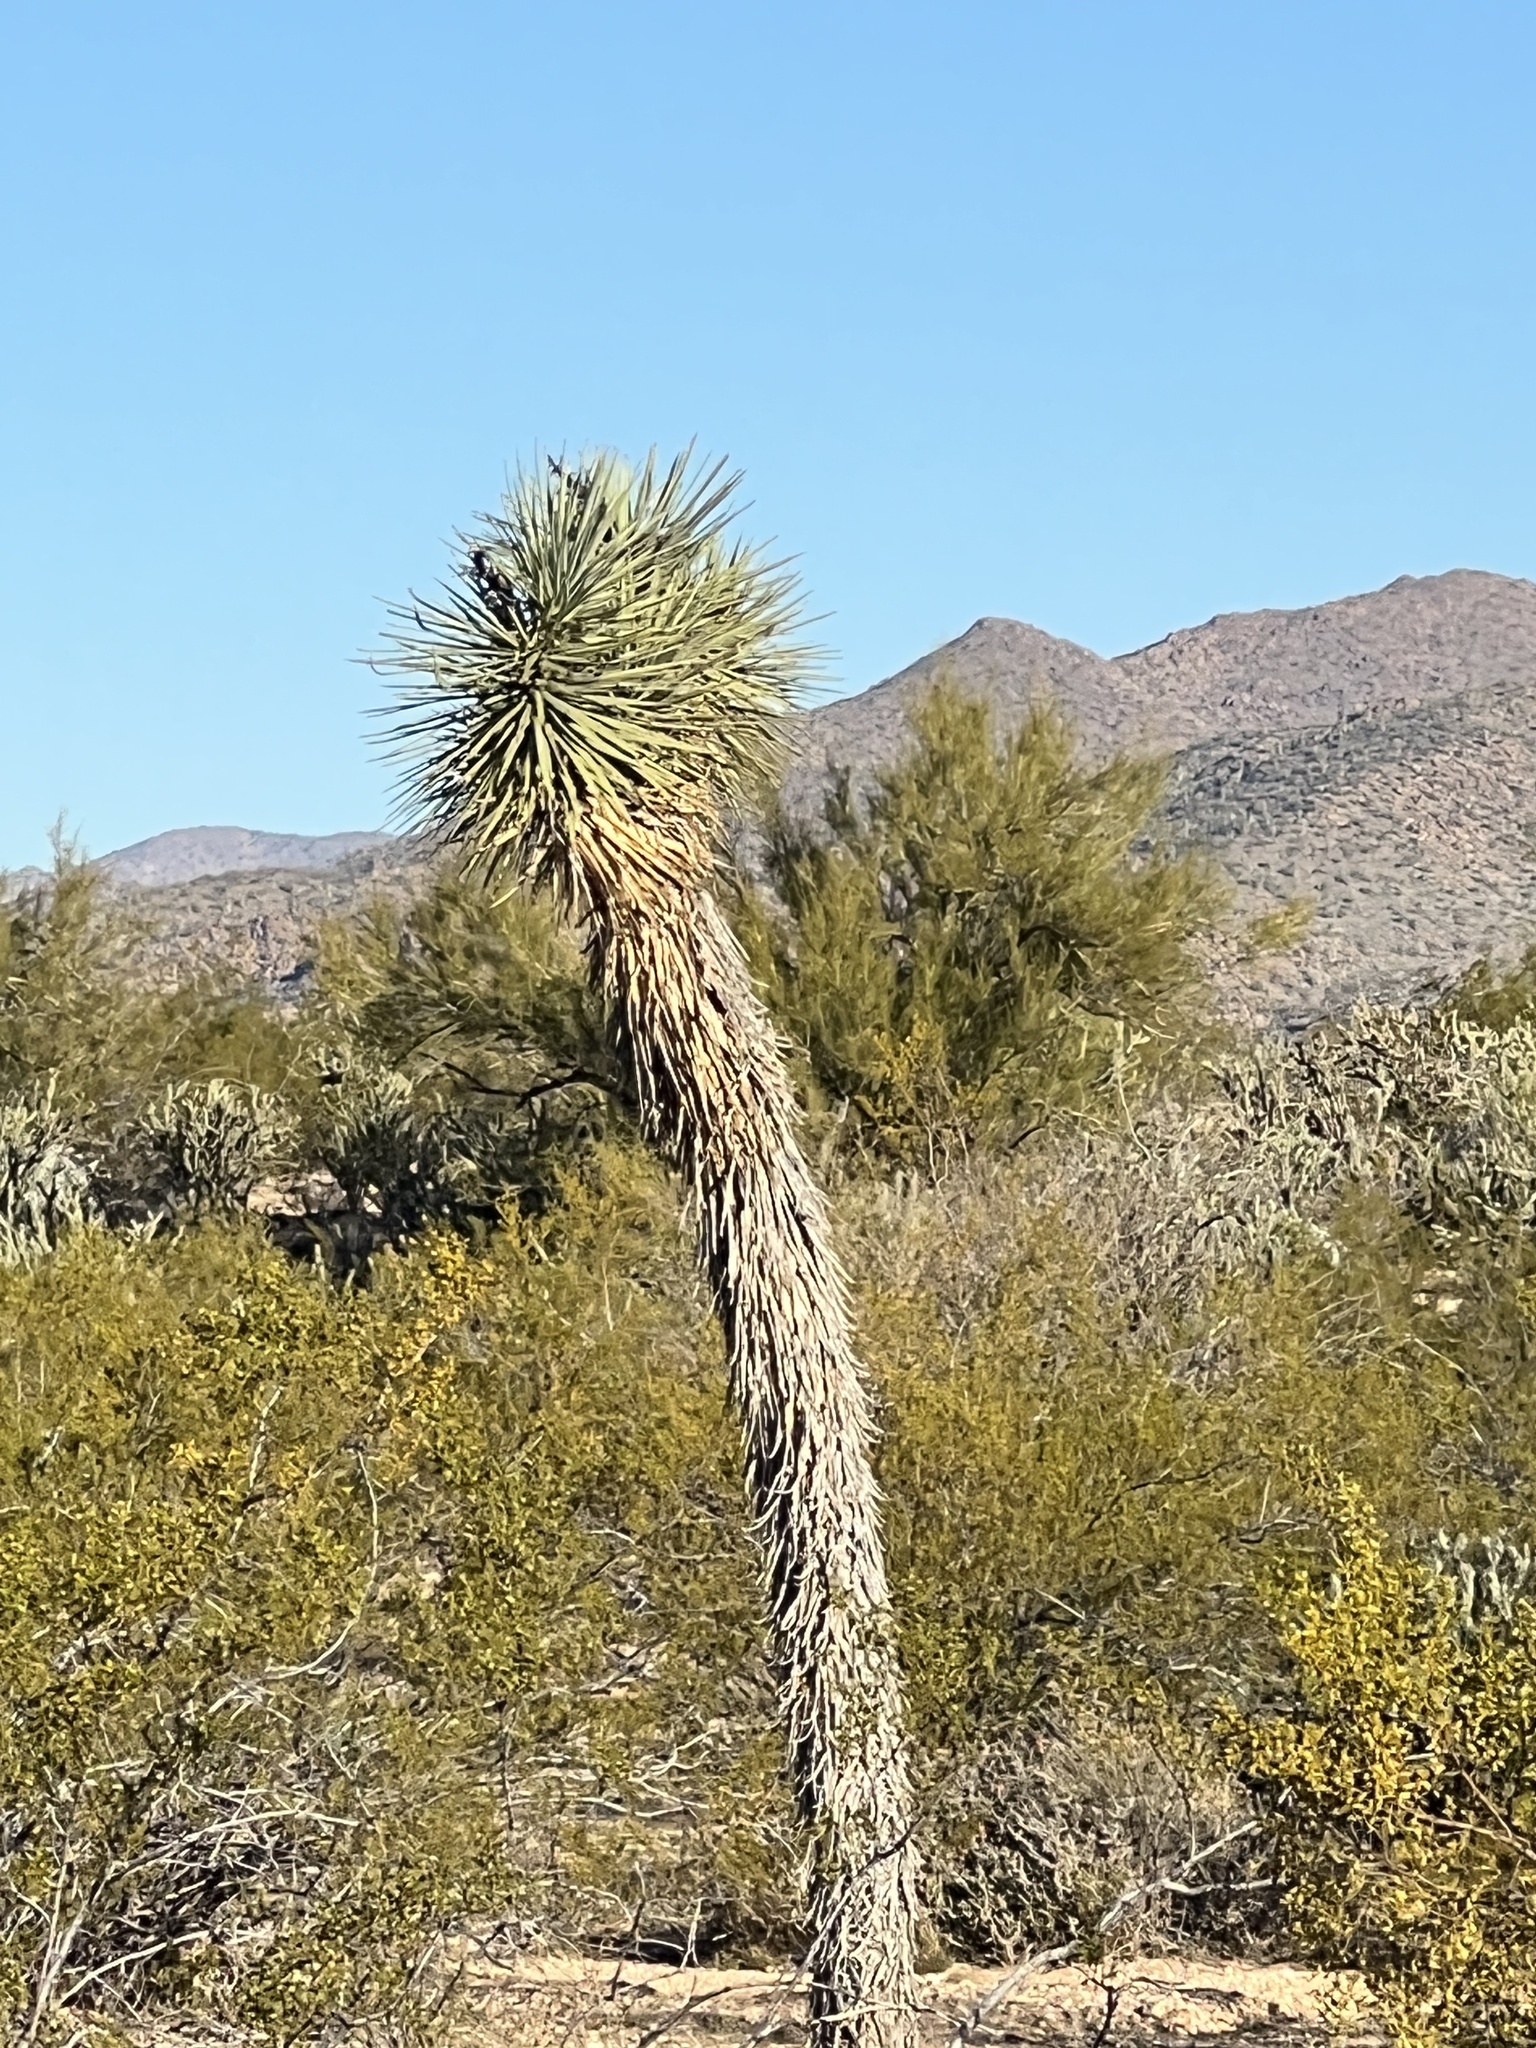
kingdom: Plantae
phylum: Tracheophyta
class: Liliopsida
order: Asparagales
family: Asparagaceae
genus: Yucca
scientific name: Yucca brevifolia
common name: Joshua tree
